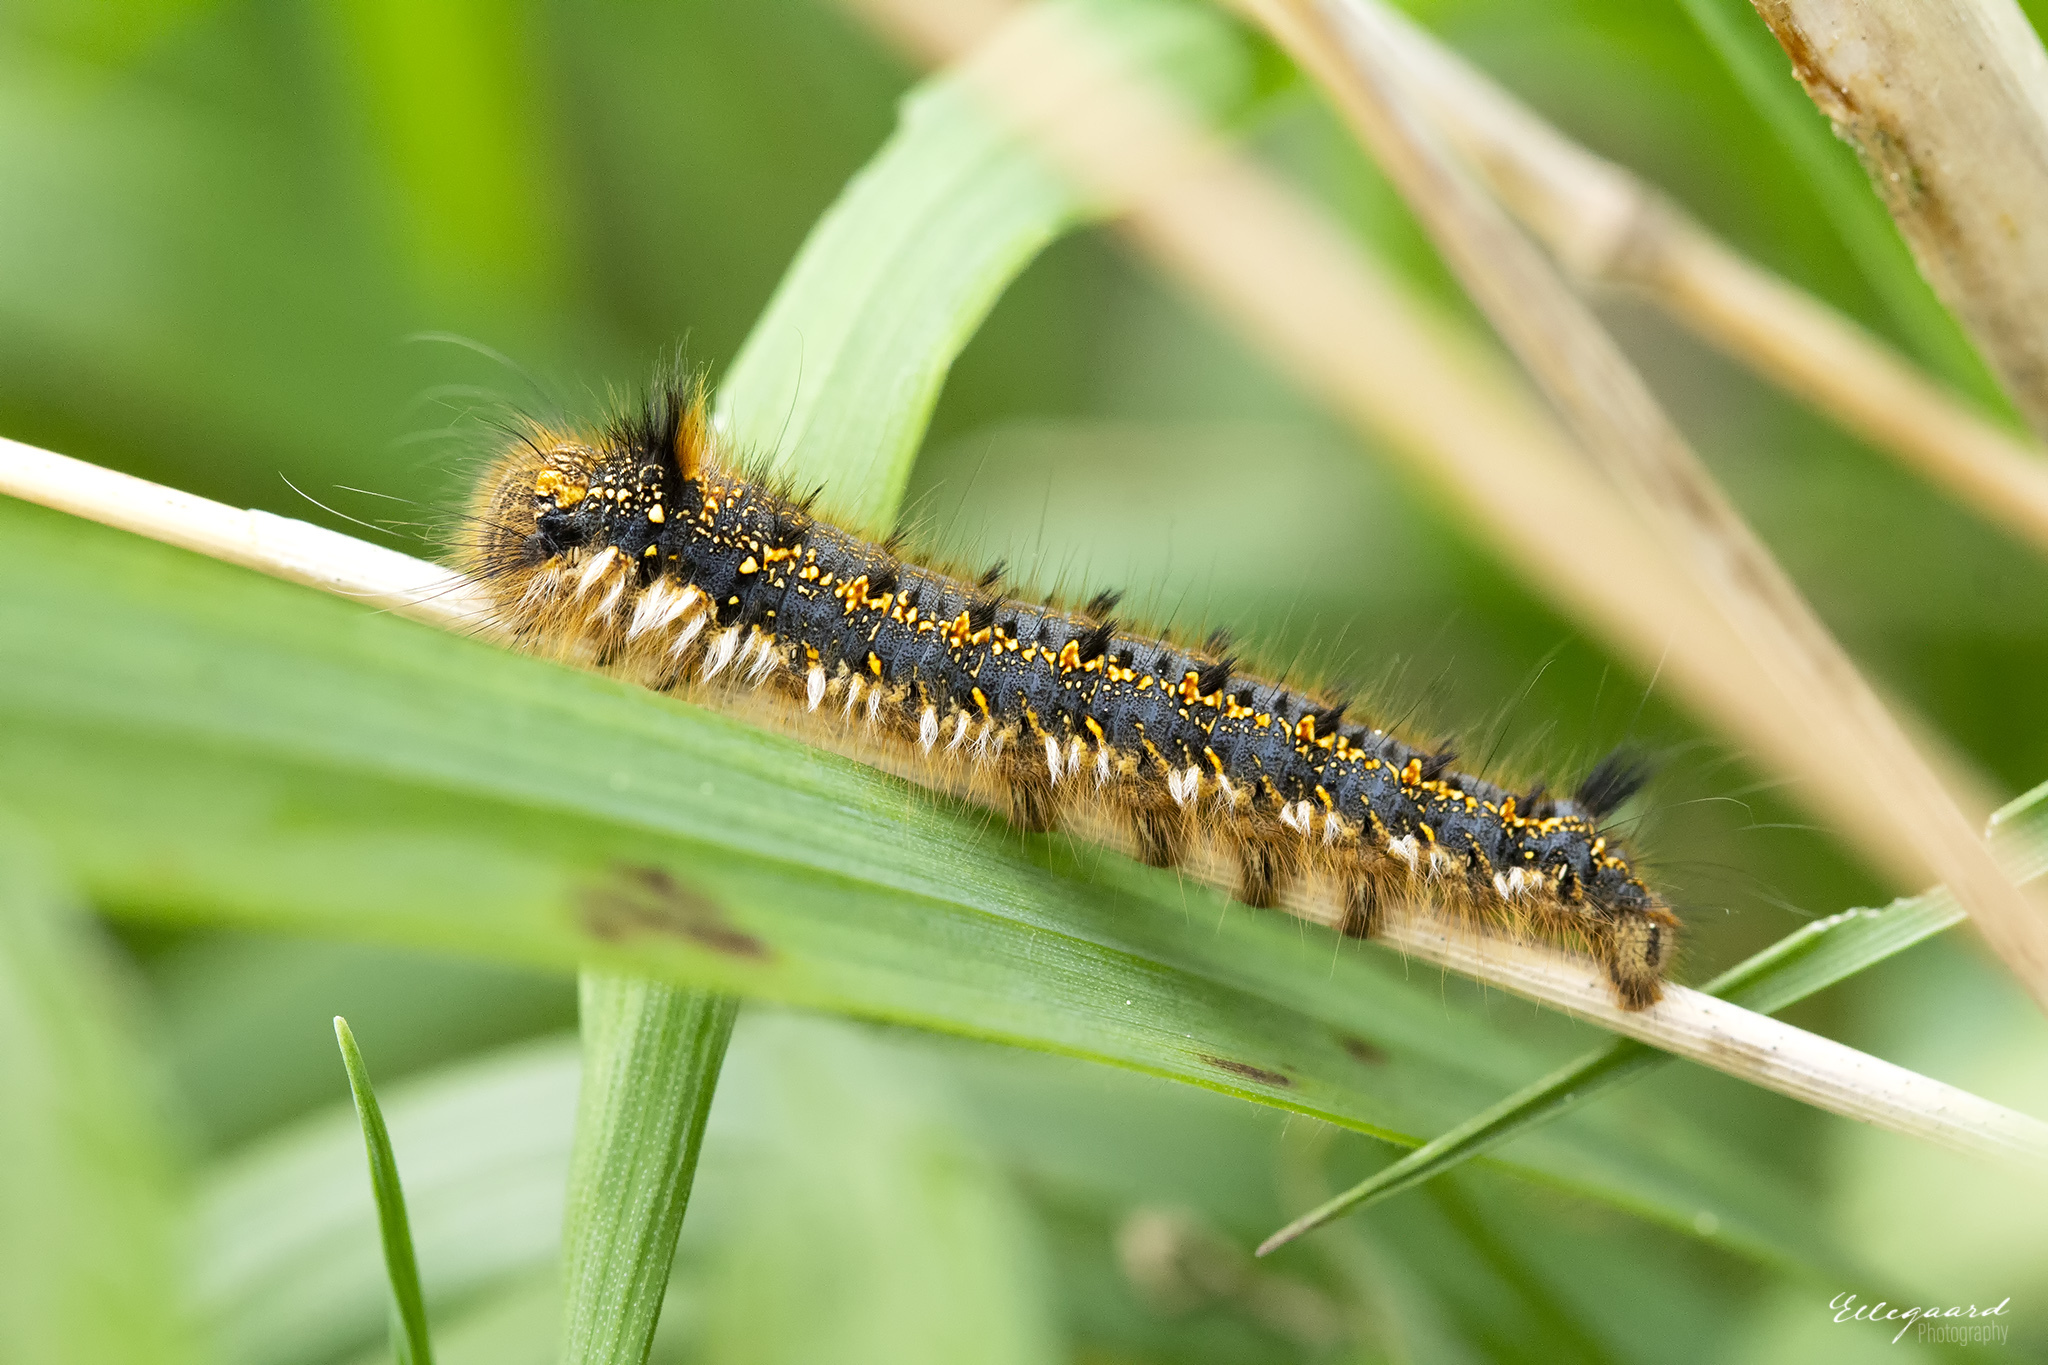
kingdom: Animalia
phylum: Arthropoda
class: Insecta
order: Lepidoptera
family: Lasiocampidae
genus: Euthrix
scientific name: Euthrix potatoria
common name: Drinker
